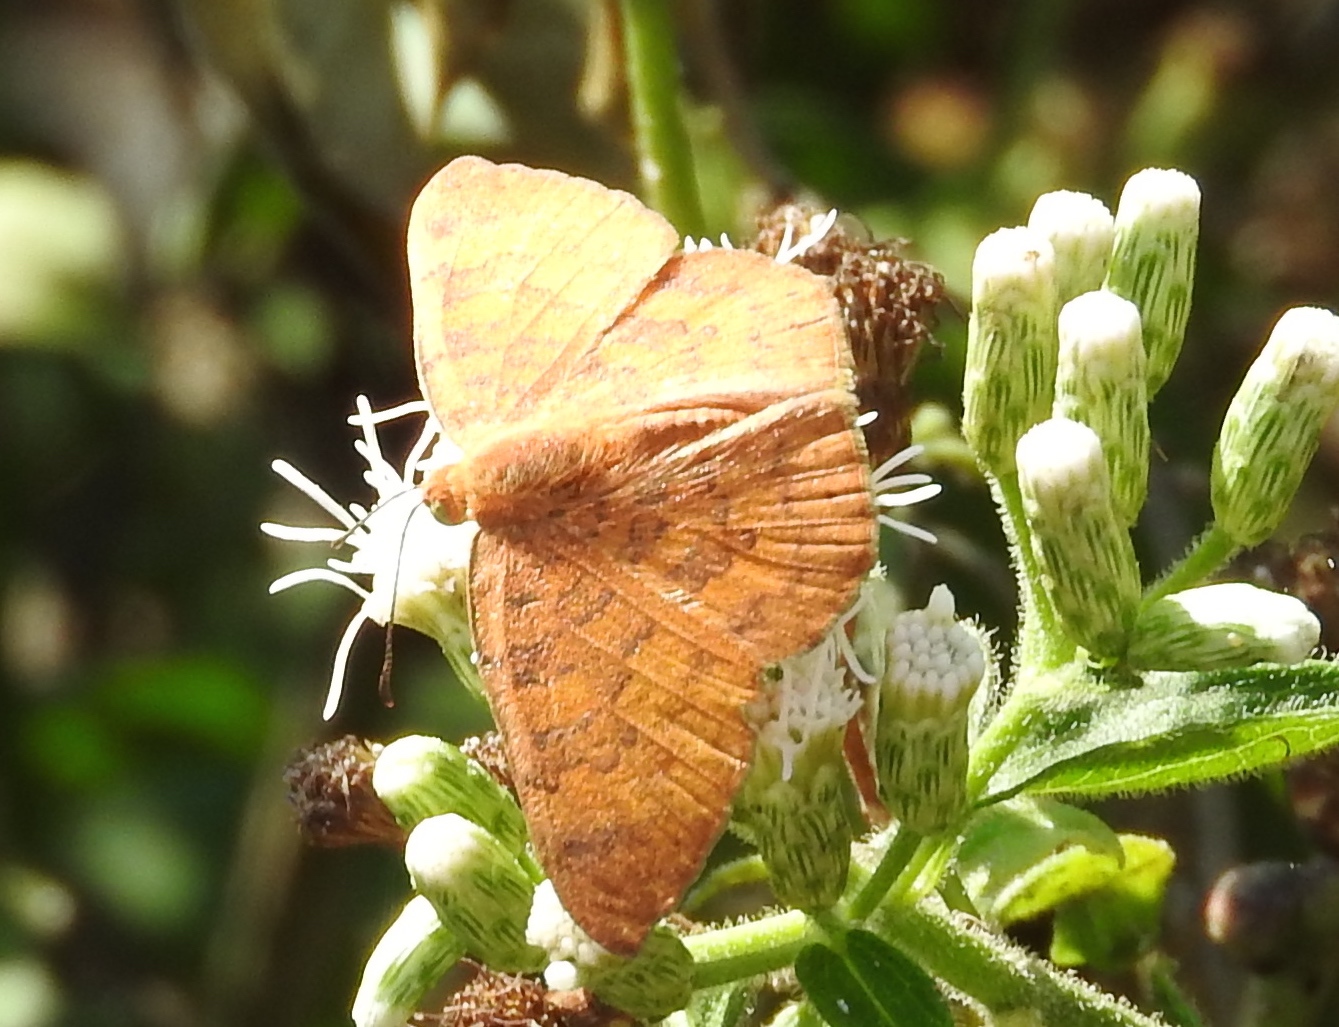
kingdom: Animalia
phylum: Arthropoda
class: Insecta
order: Lepidoptera
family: Lycaenidae
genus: Emesis
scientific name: Emesis
